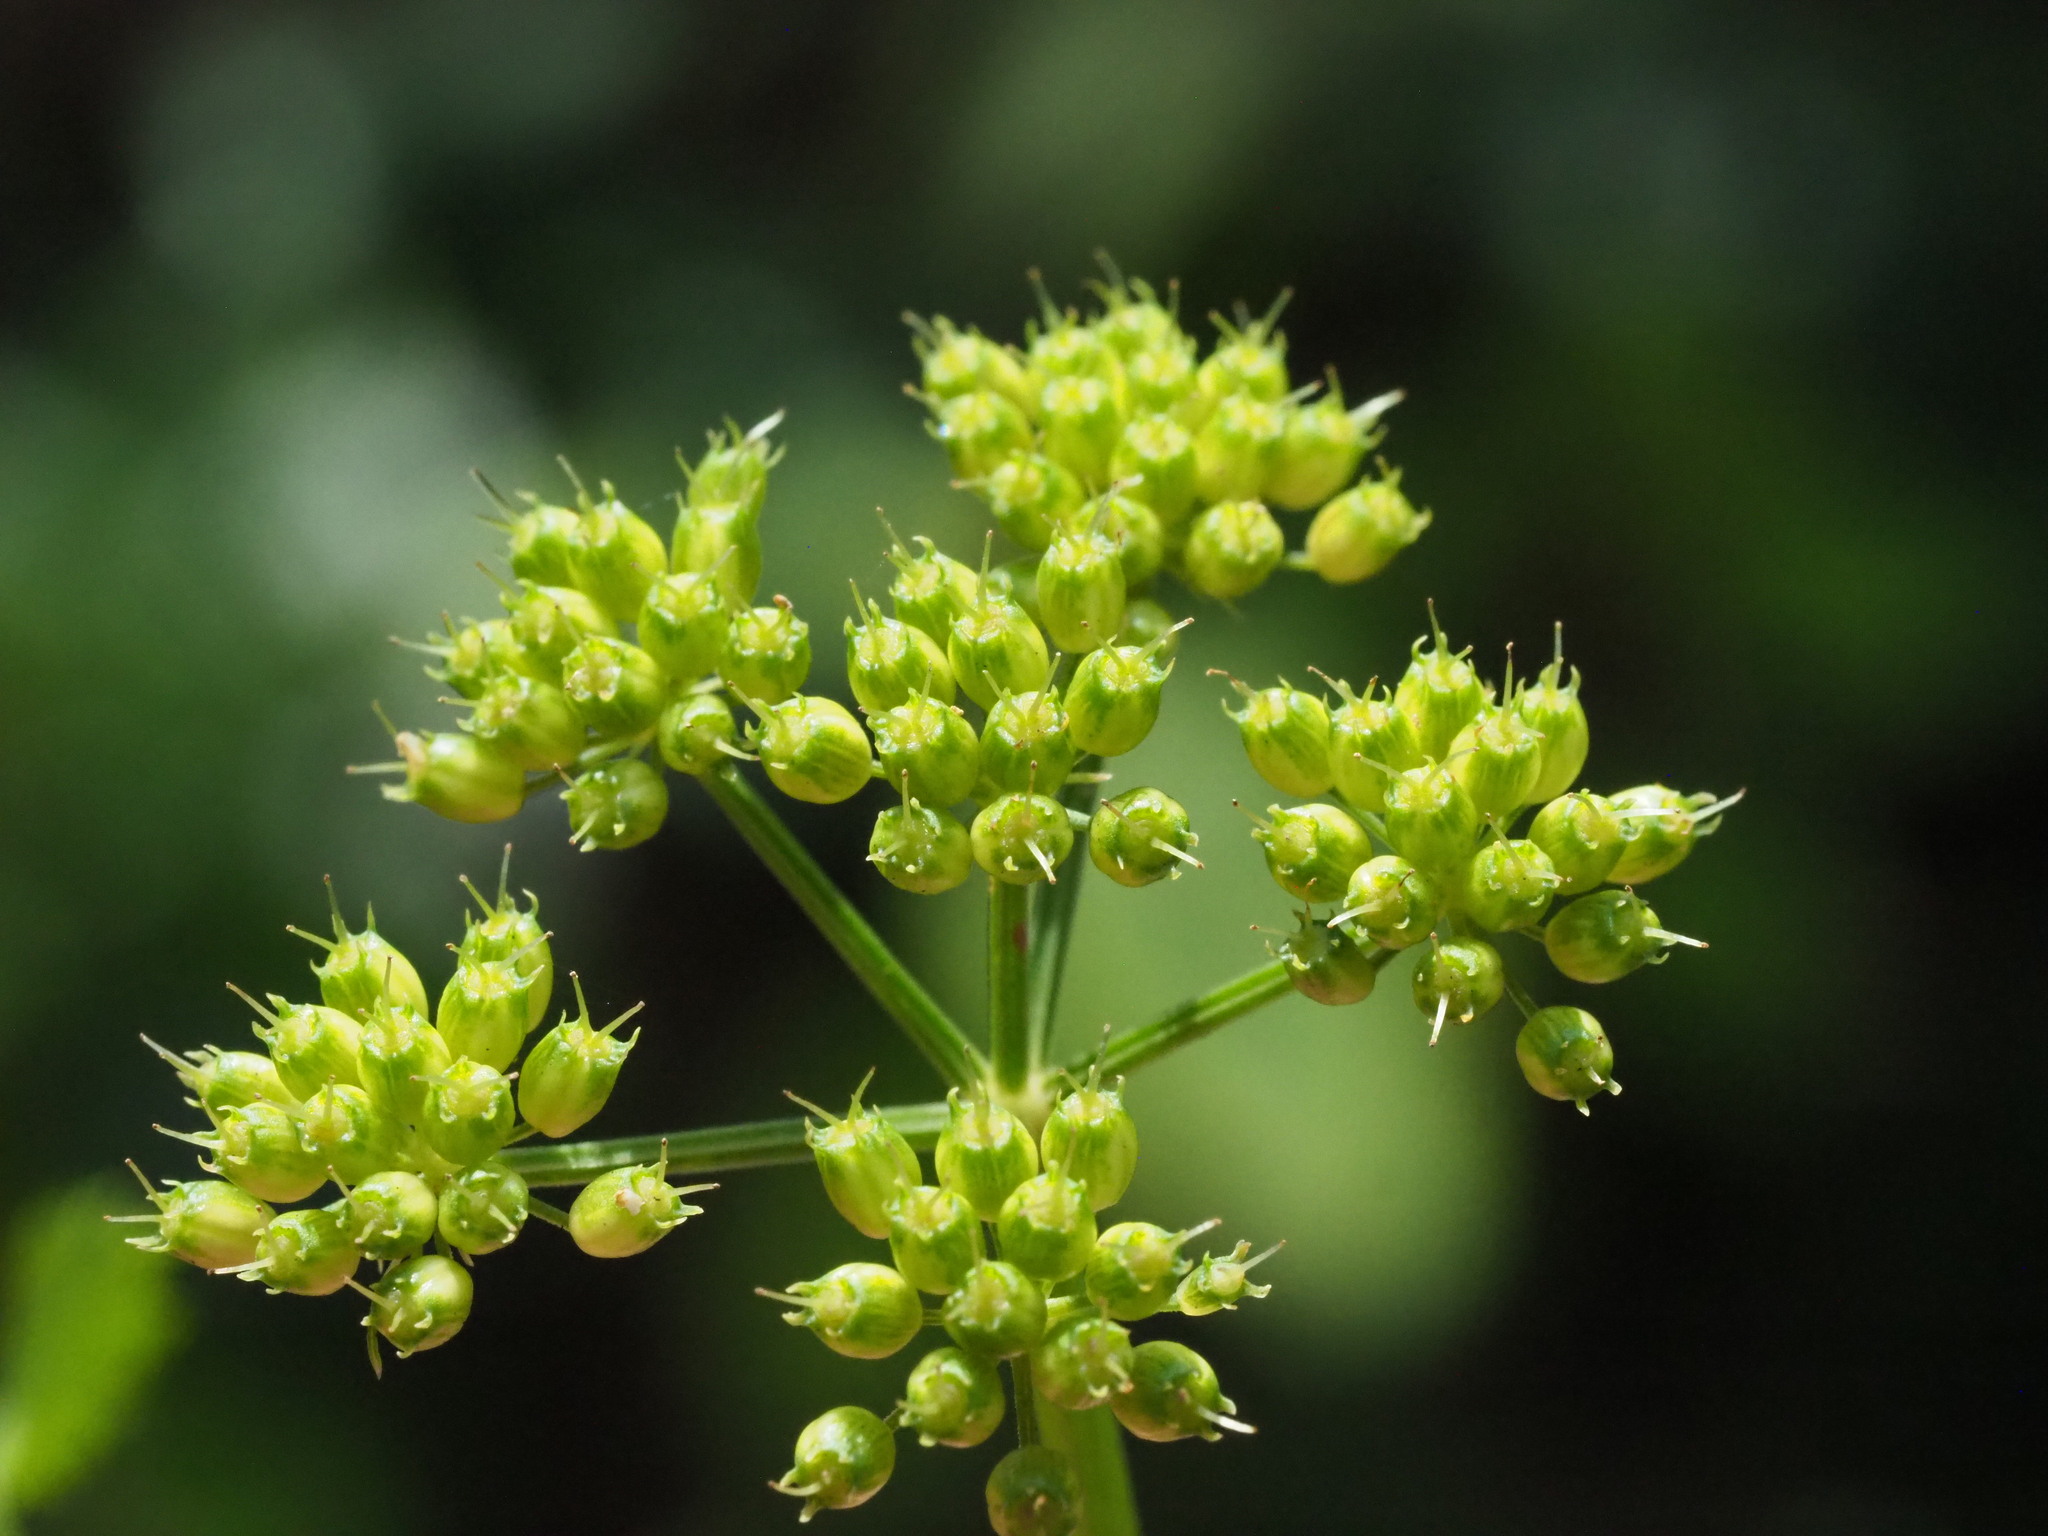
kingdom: Plantae
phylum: Tracheophyta
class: Magnoliopsida
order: Apiales
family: Apiaceae
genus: Oenanthe
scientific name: Oenanthe javanica
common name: Java water-dropwort
